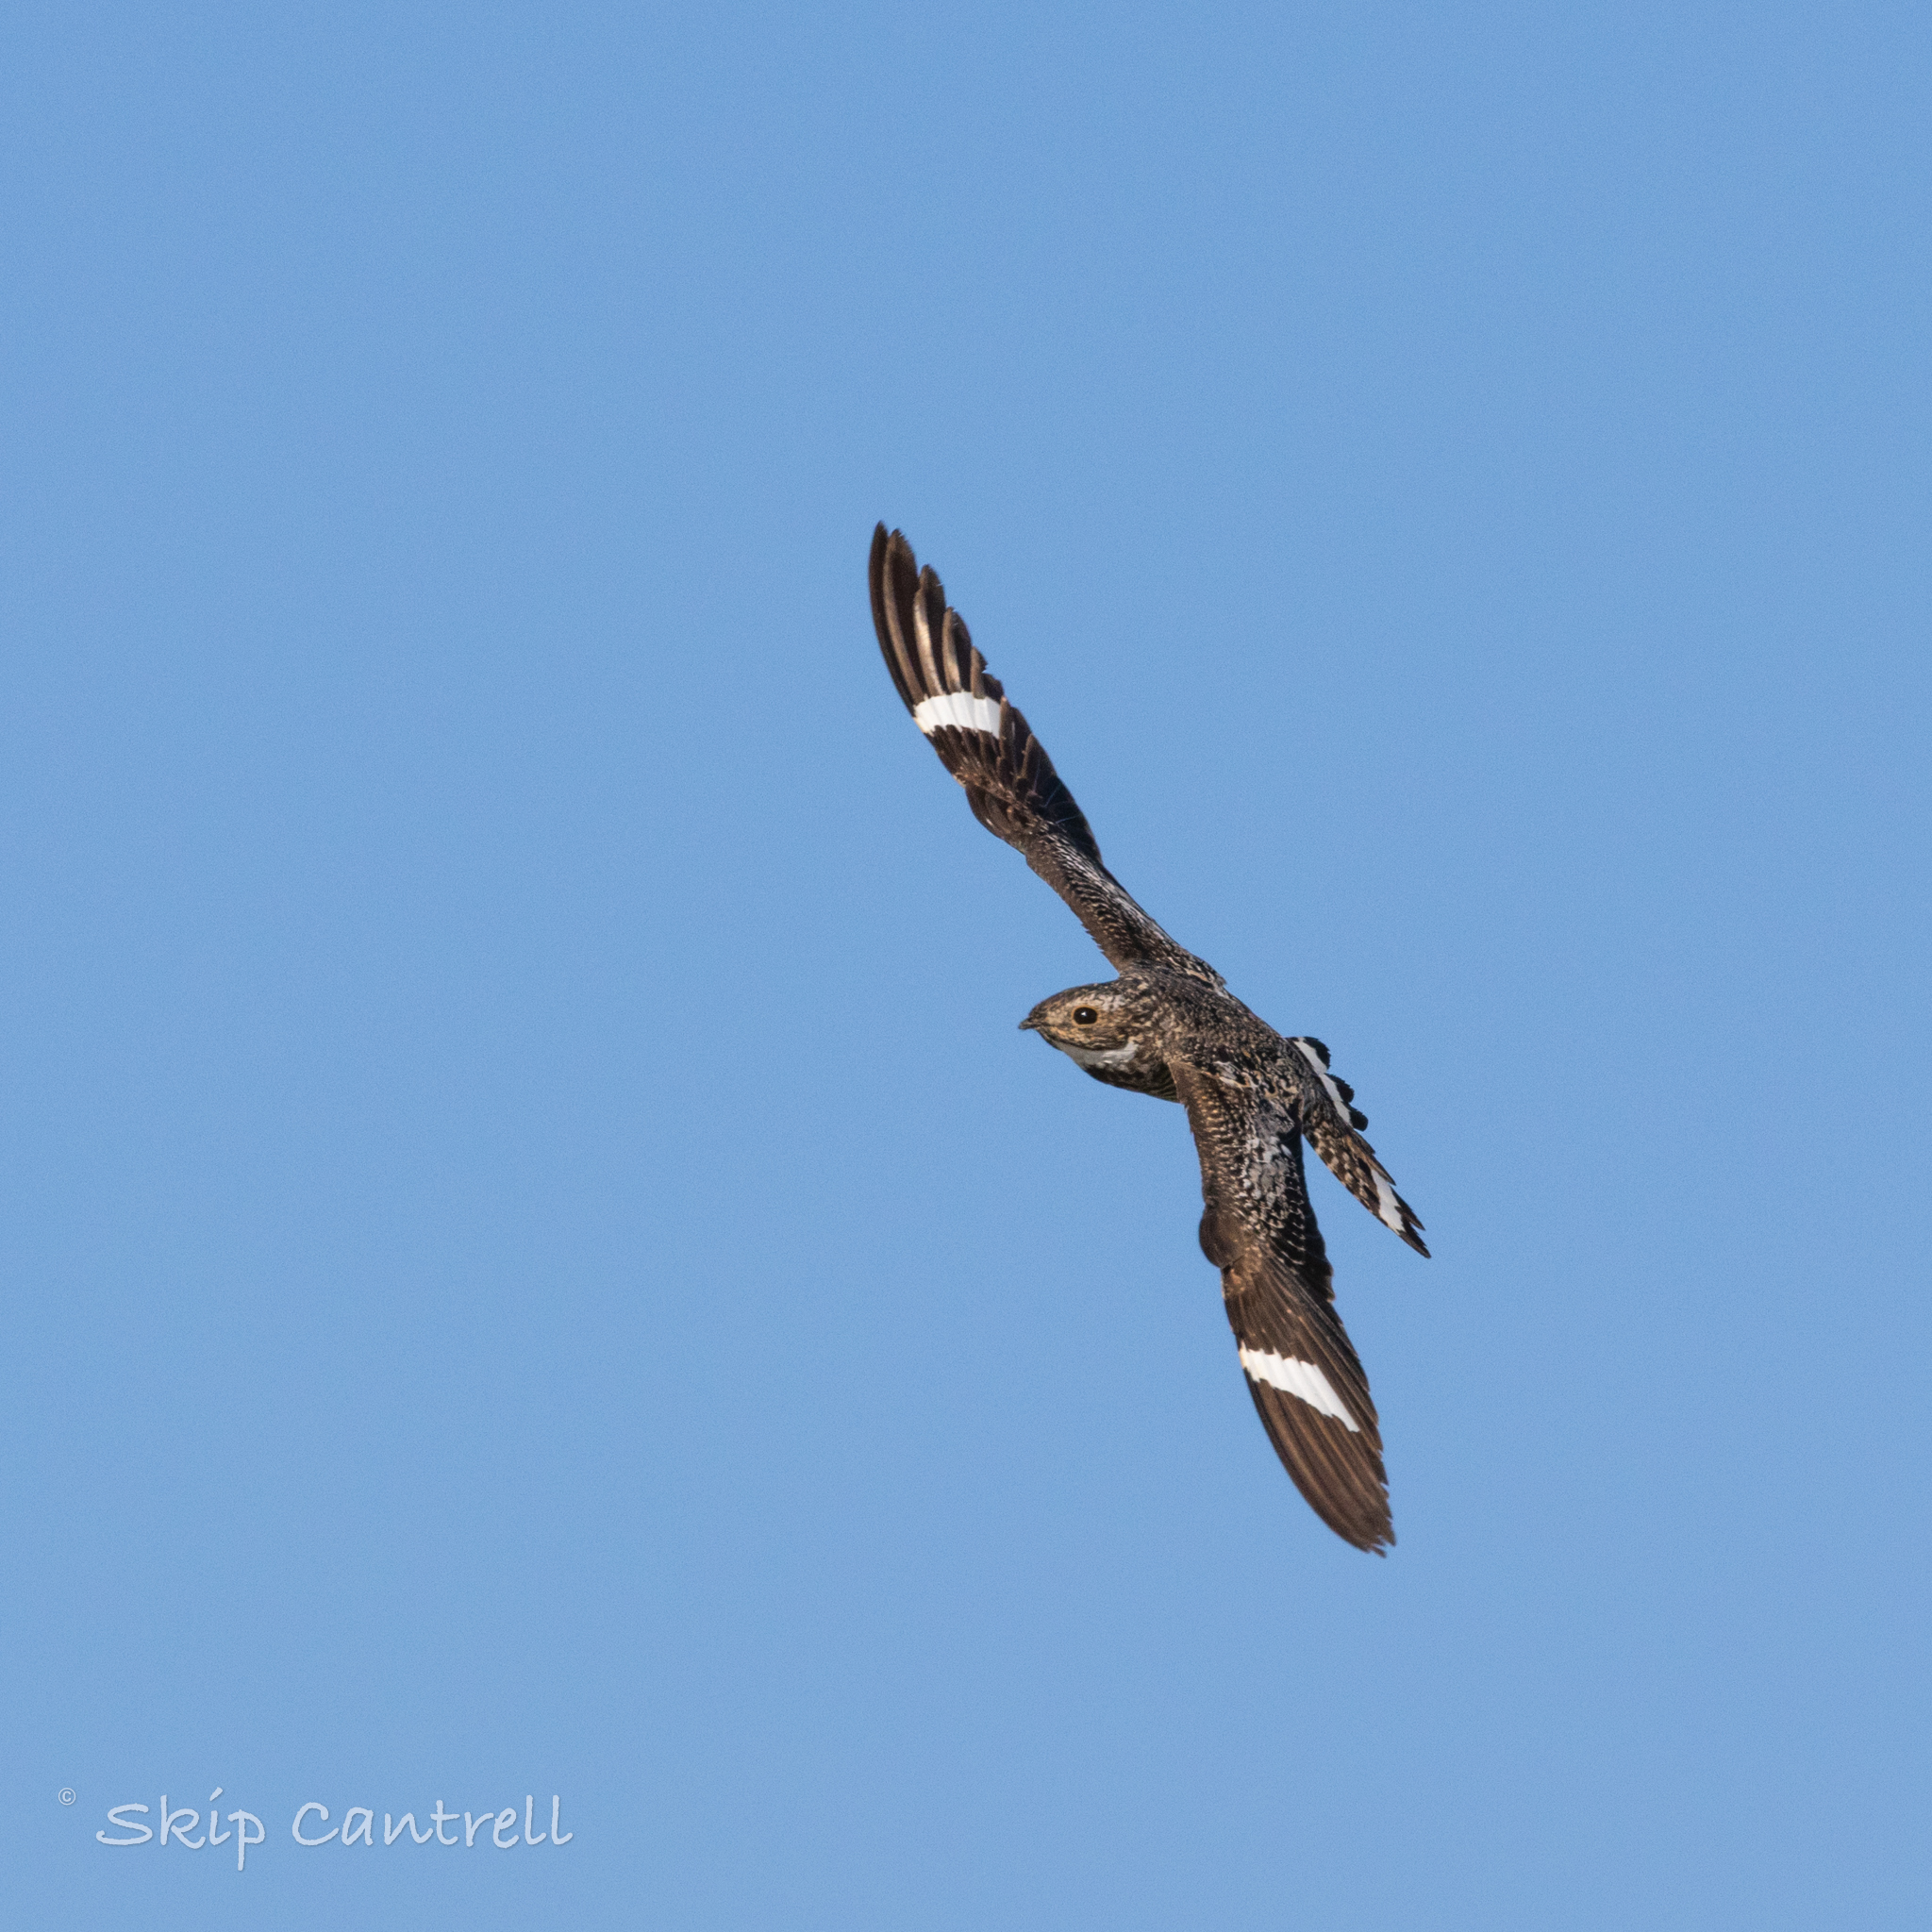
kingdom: Animalia
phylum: Chordata
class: Aves
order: Caprimulgiformes
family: Caprimulgidae
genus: Chordeiles
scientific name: Chordeiles minor
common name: Common nighthawk
